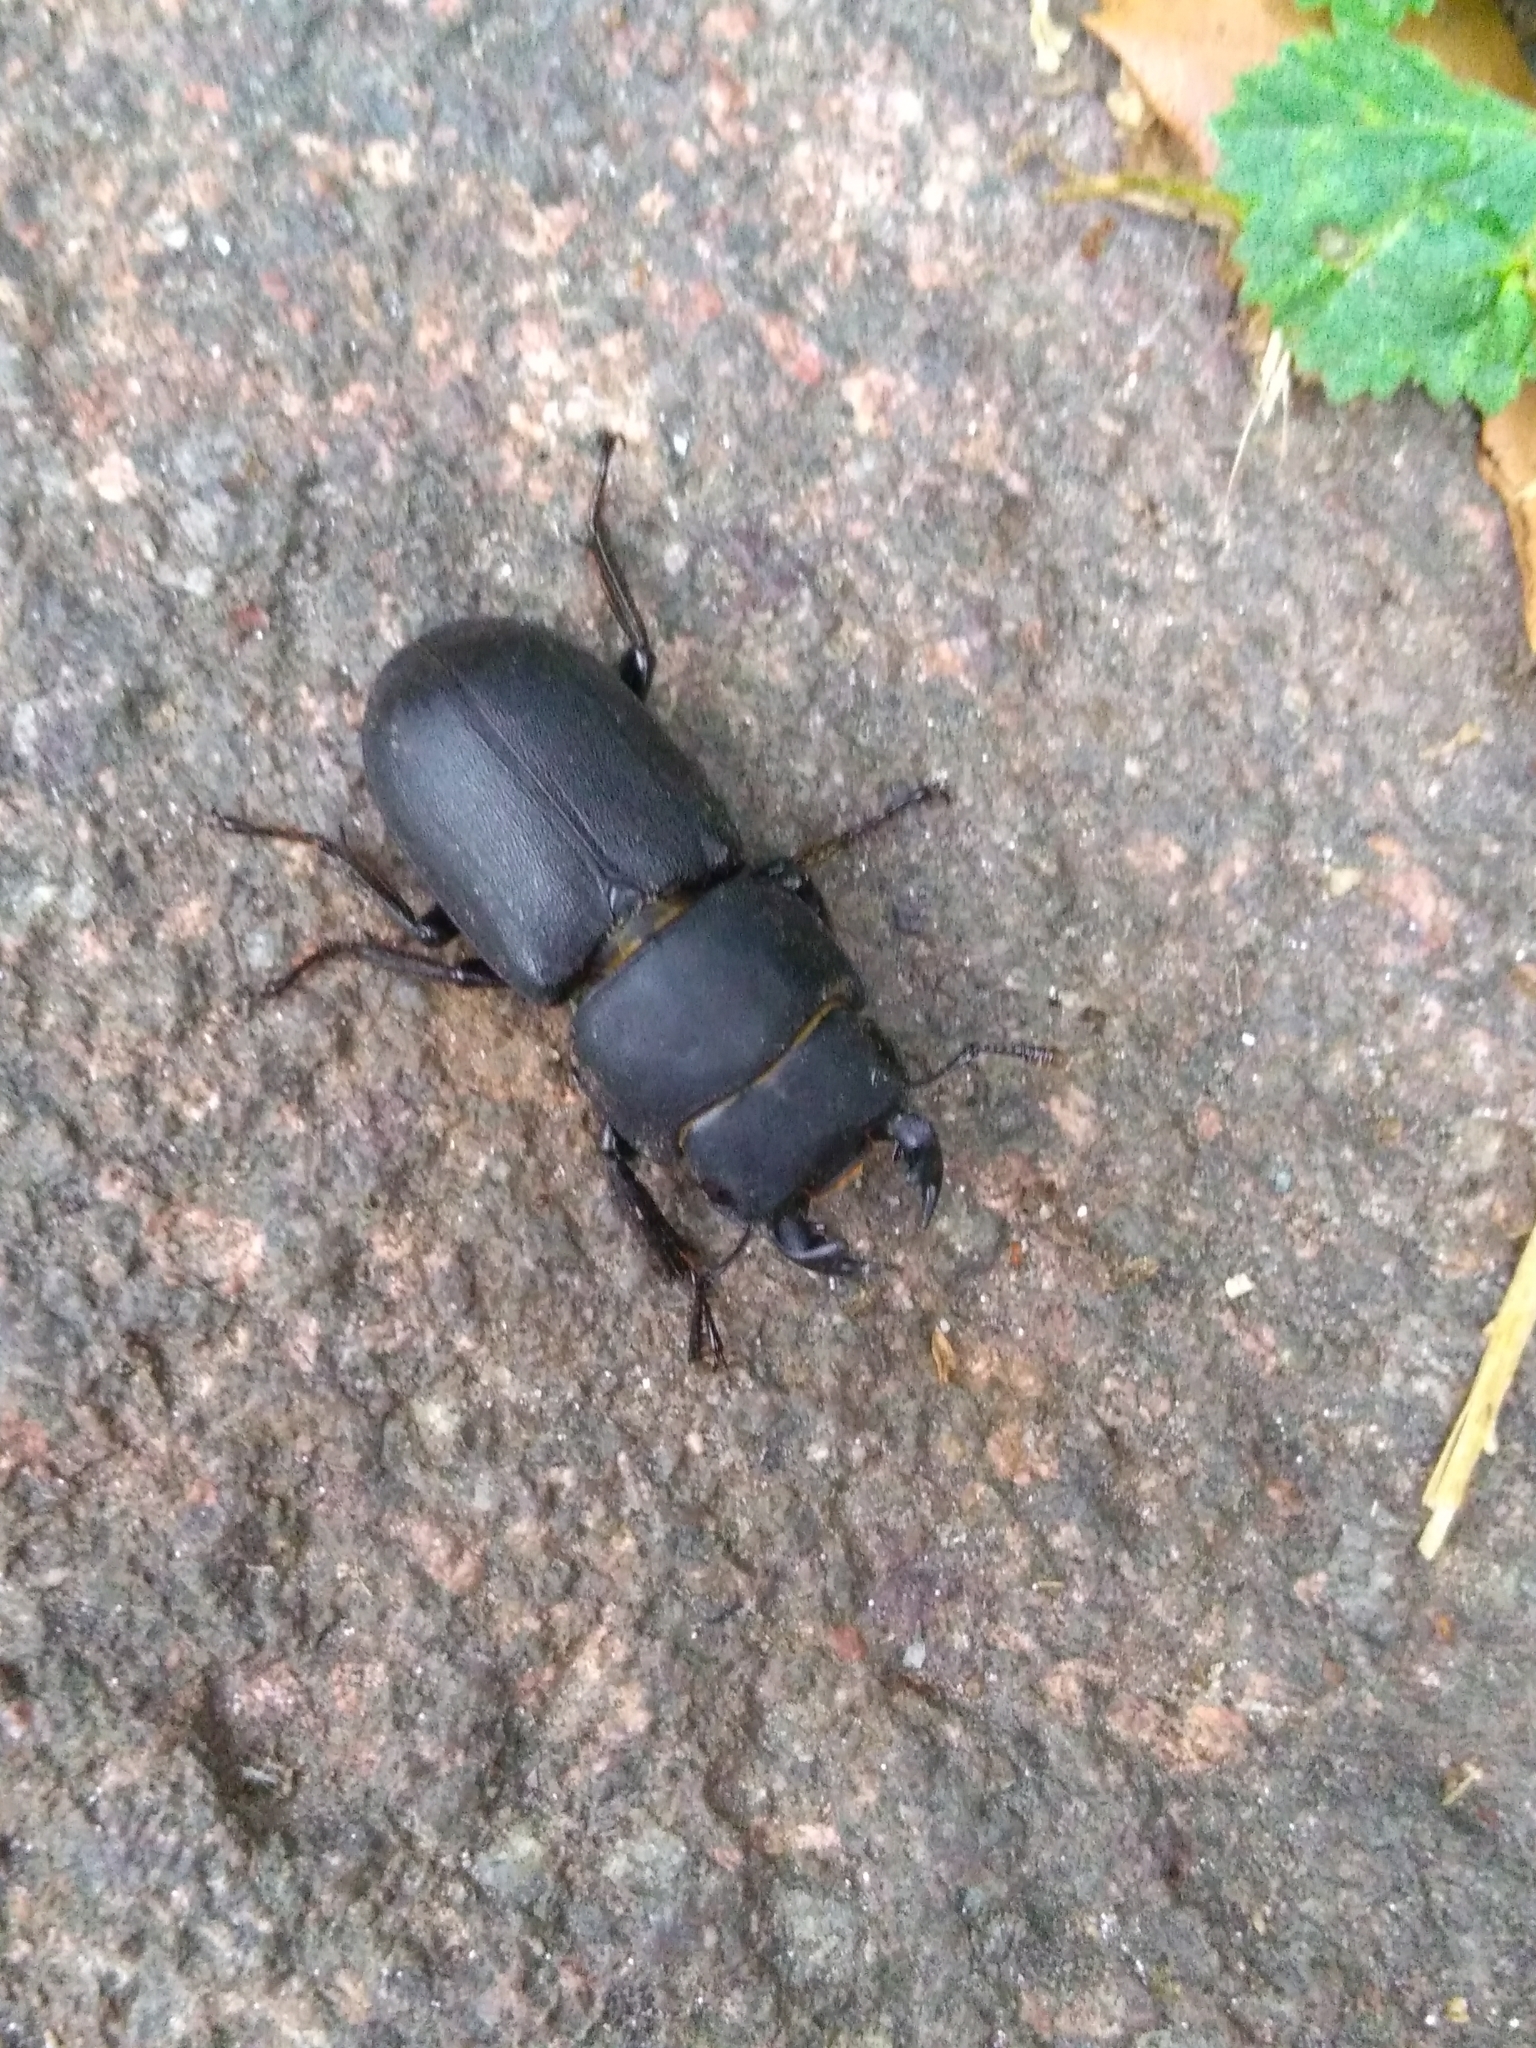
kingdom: Animalia
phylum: Arthropoda
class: Insecta
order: Coleoptera
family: Lucanidae
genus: Dorcus
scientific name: Dorcus parallelipipedus
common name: Lesser stag beetle
